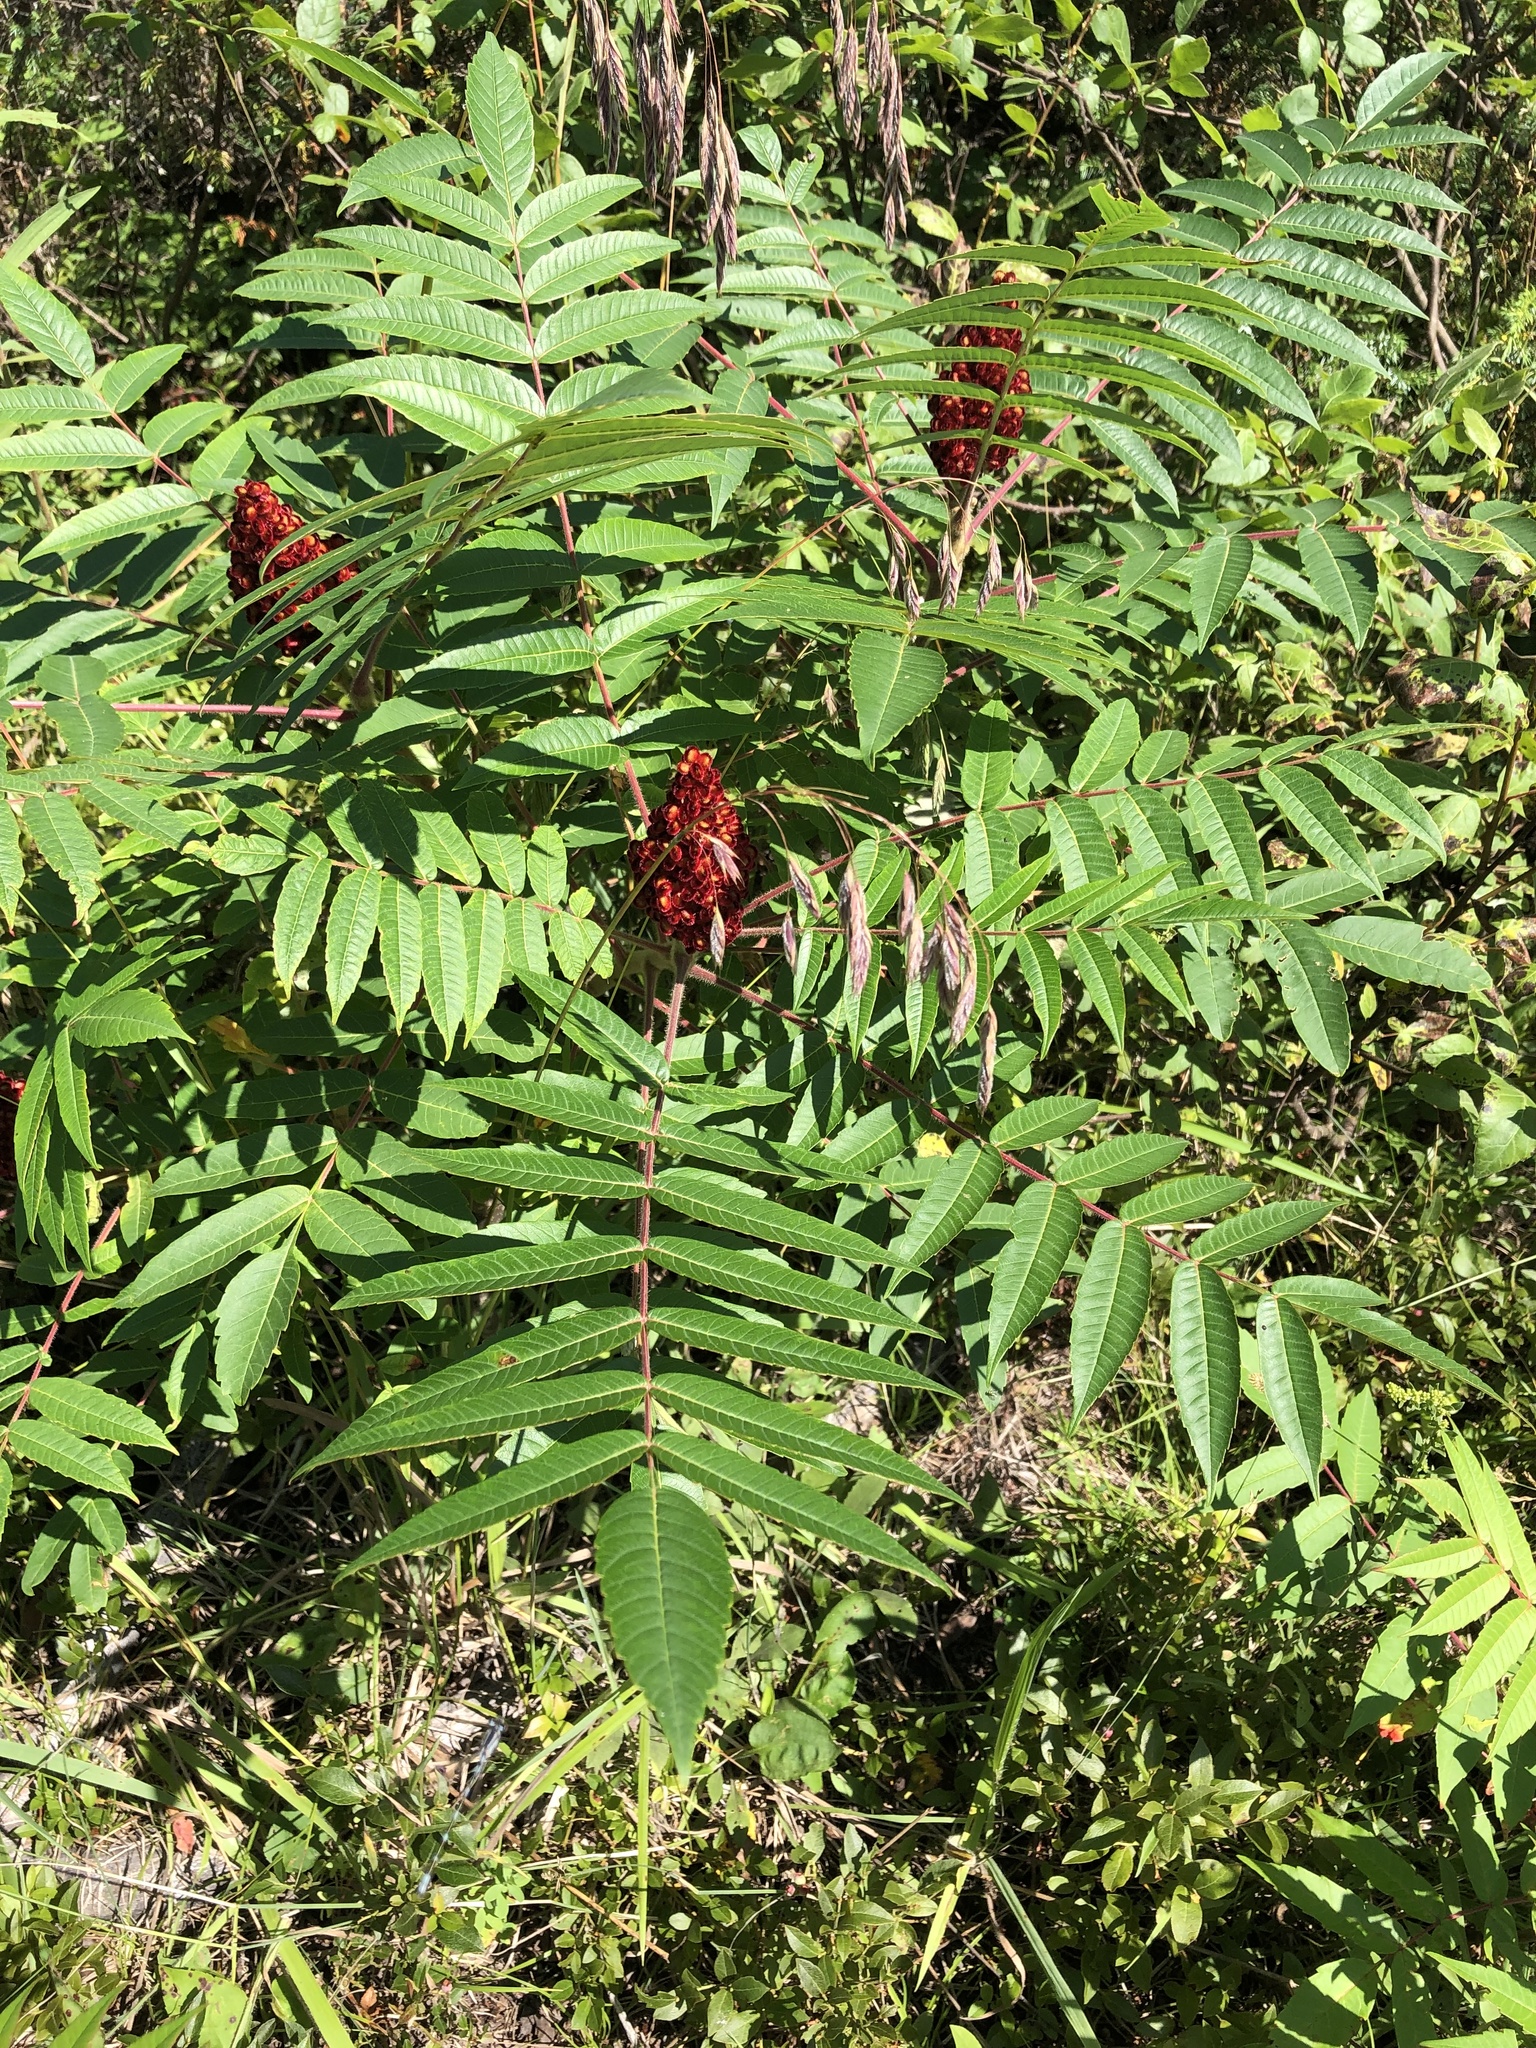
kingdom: Plantae
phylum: Tracheophyta
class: Magnoliopsida
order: Sapindales
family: Anacardiaceae
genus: Rhus
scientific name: Rhus typhina
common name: Staghorn sumac
